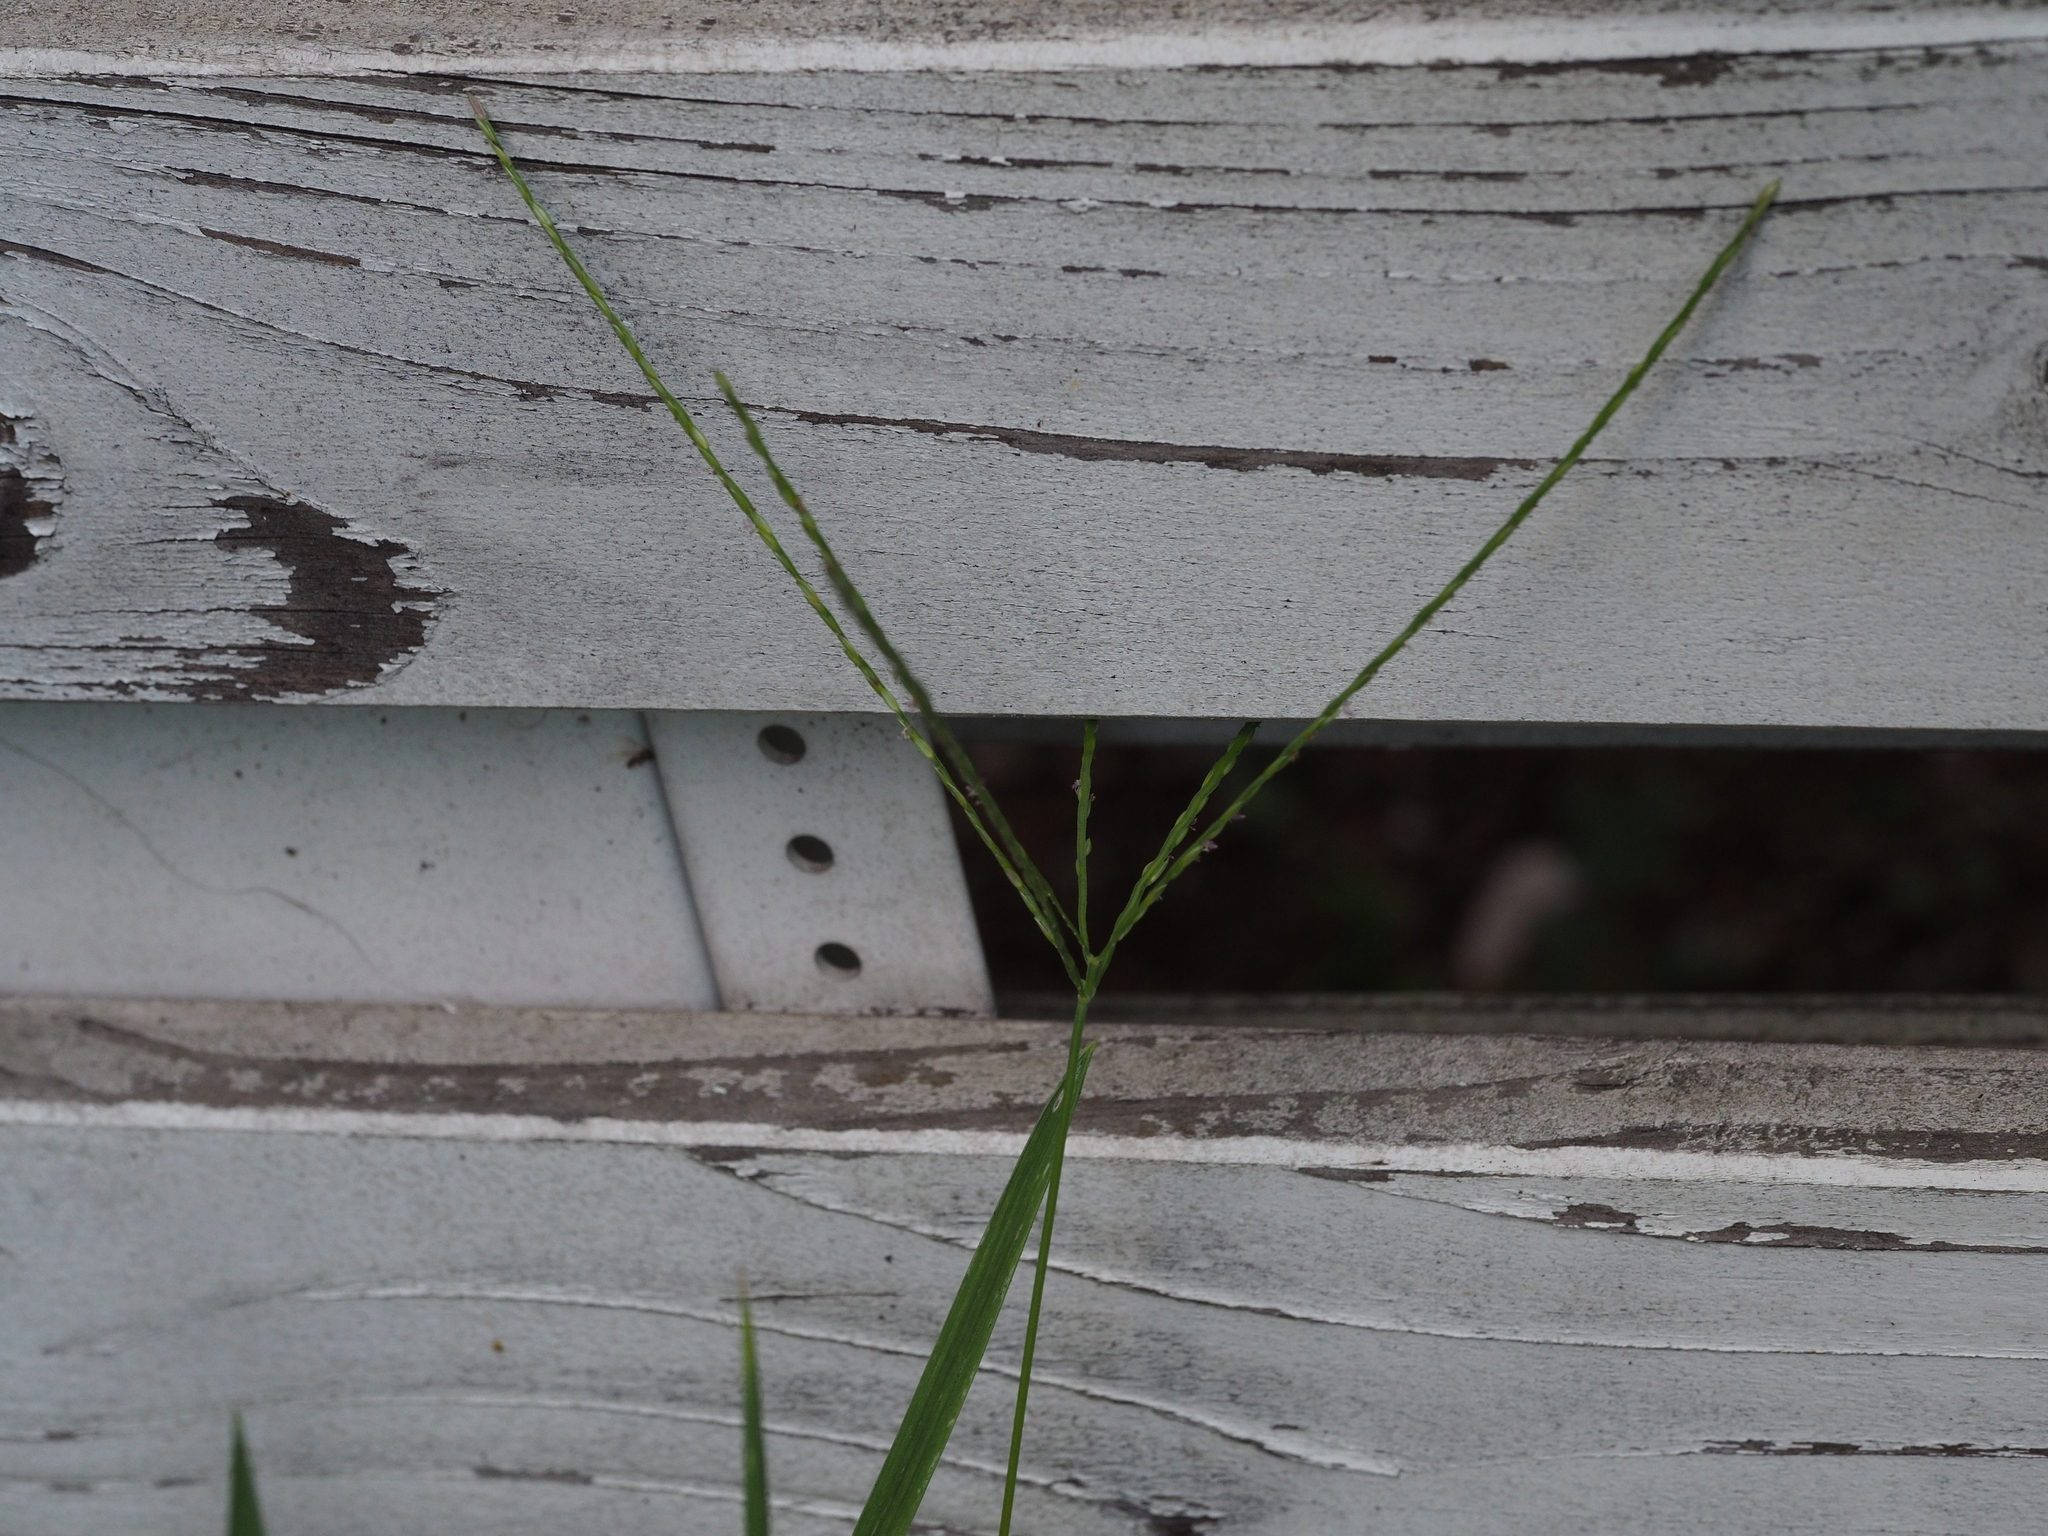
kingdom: Plantae
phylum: Tracheophyta
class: Liliopsida
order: Poales
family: Poaceae
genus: Digitaria
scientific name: Digitaria sanguinalis
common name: Hairy crabgrass
